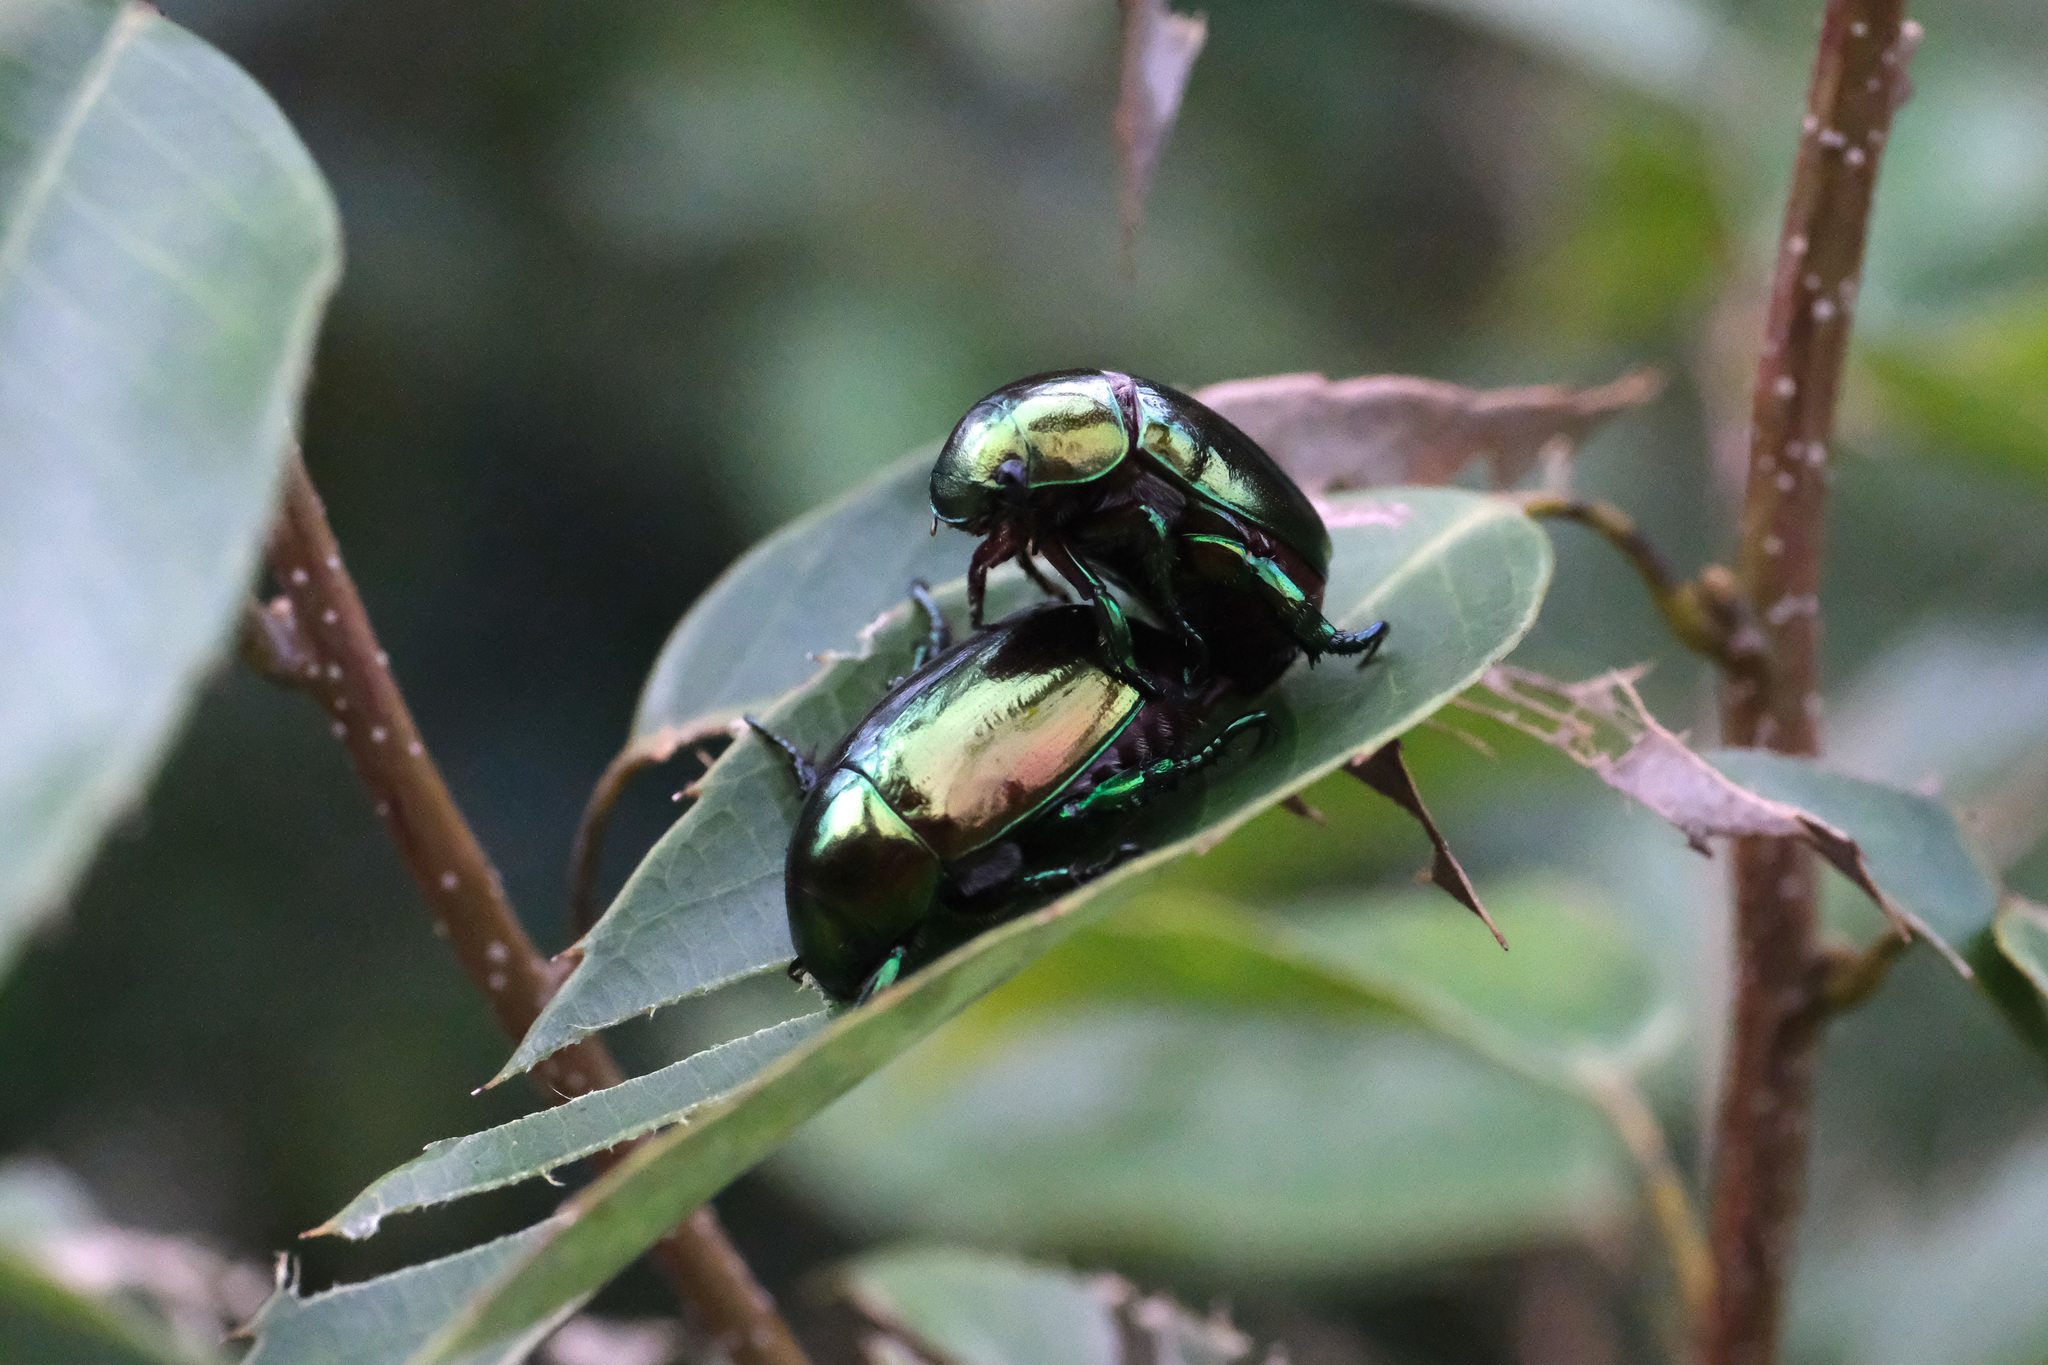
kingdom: Animalia
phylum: Arthropoda
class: Insecta
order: Coleoptera
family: Scarabaeidae
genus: Mimela
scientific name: Mimela excisipes
